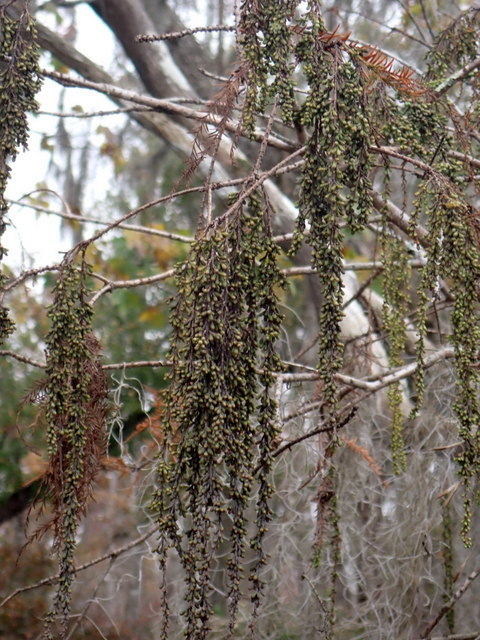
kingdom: Plantae
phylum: Tracheophyta
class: Pinopsida
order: Pinales
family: Cupressaceae
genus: Taxodium
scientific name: Taxodium distichum
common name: Bald cypress
